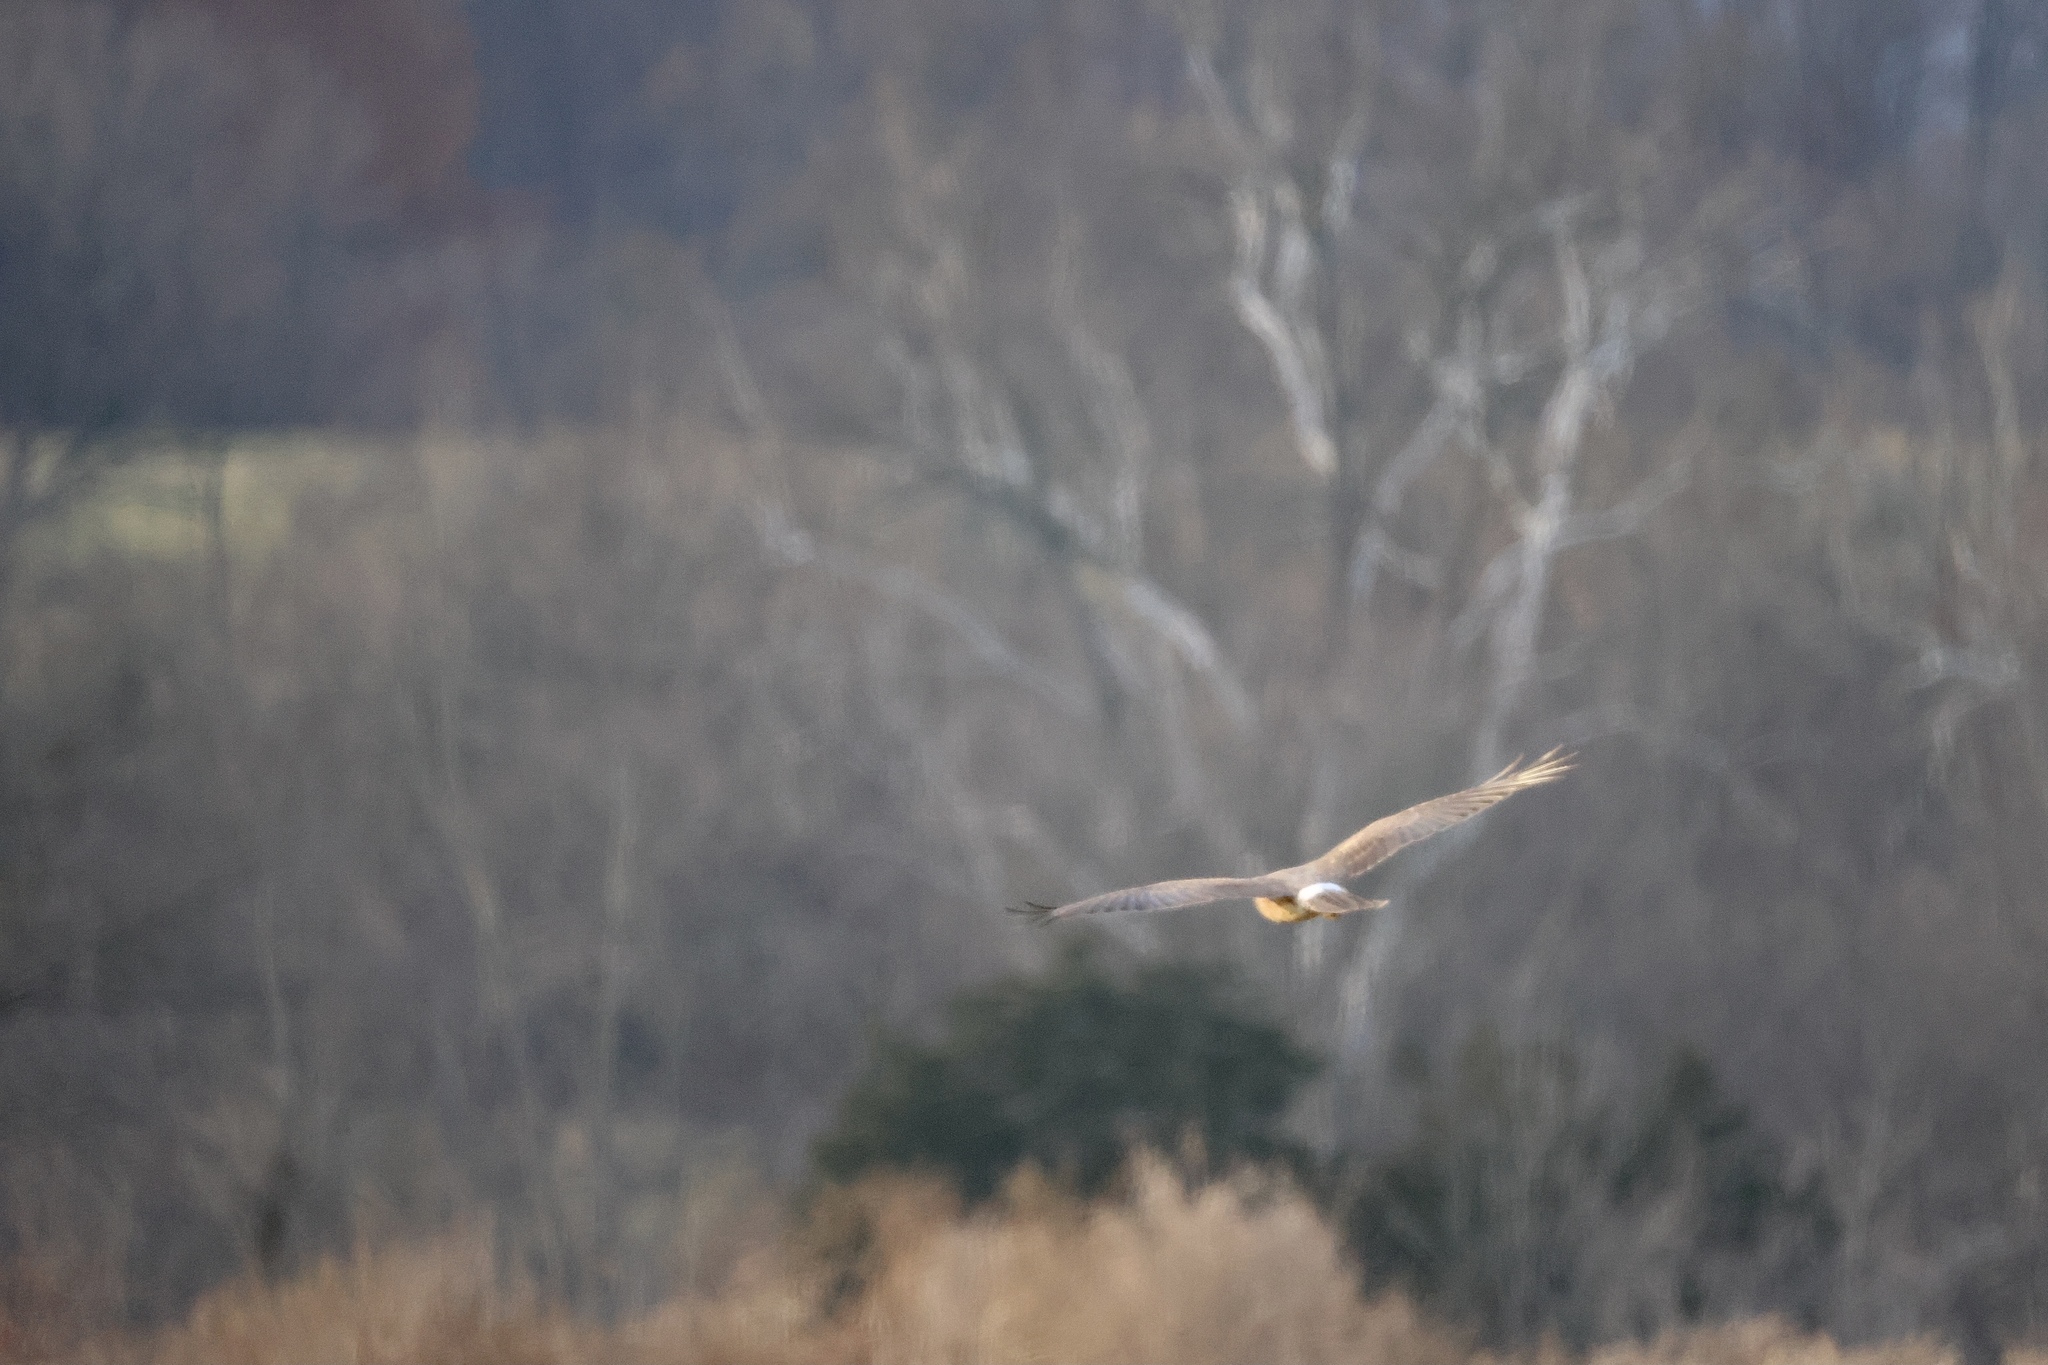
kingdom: Animalia
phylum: Chordata
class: Aves
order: Accipitriformes
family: Accipitridae
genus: Circus
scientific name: Circus cyaneus
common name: Hen harrier
